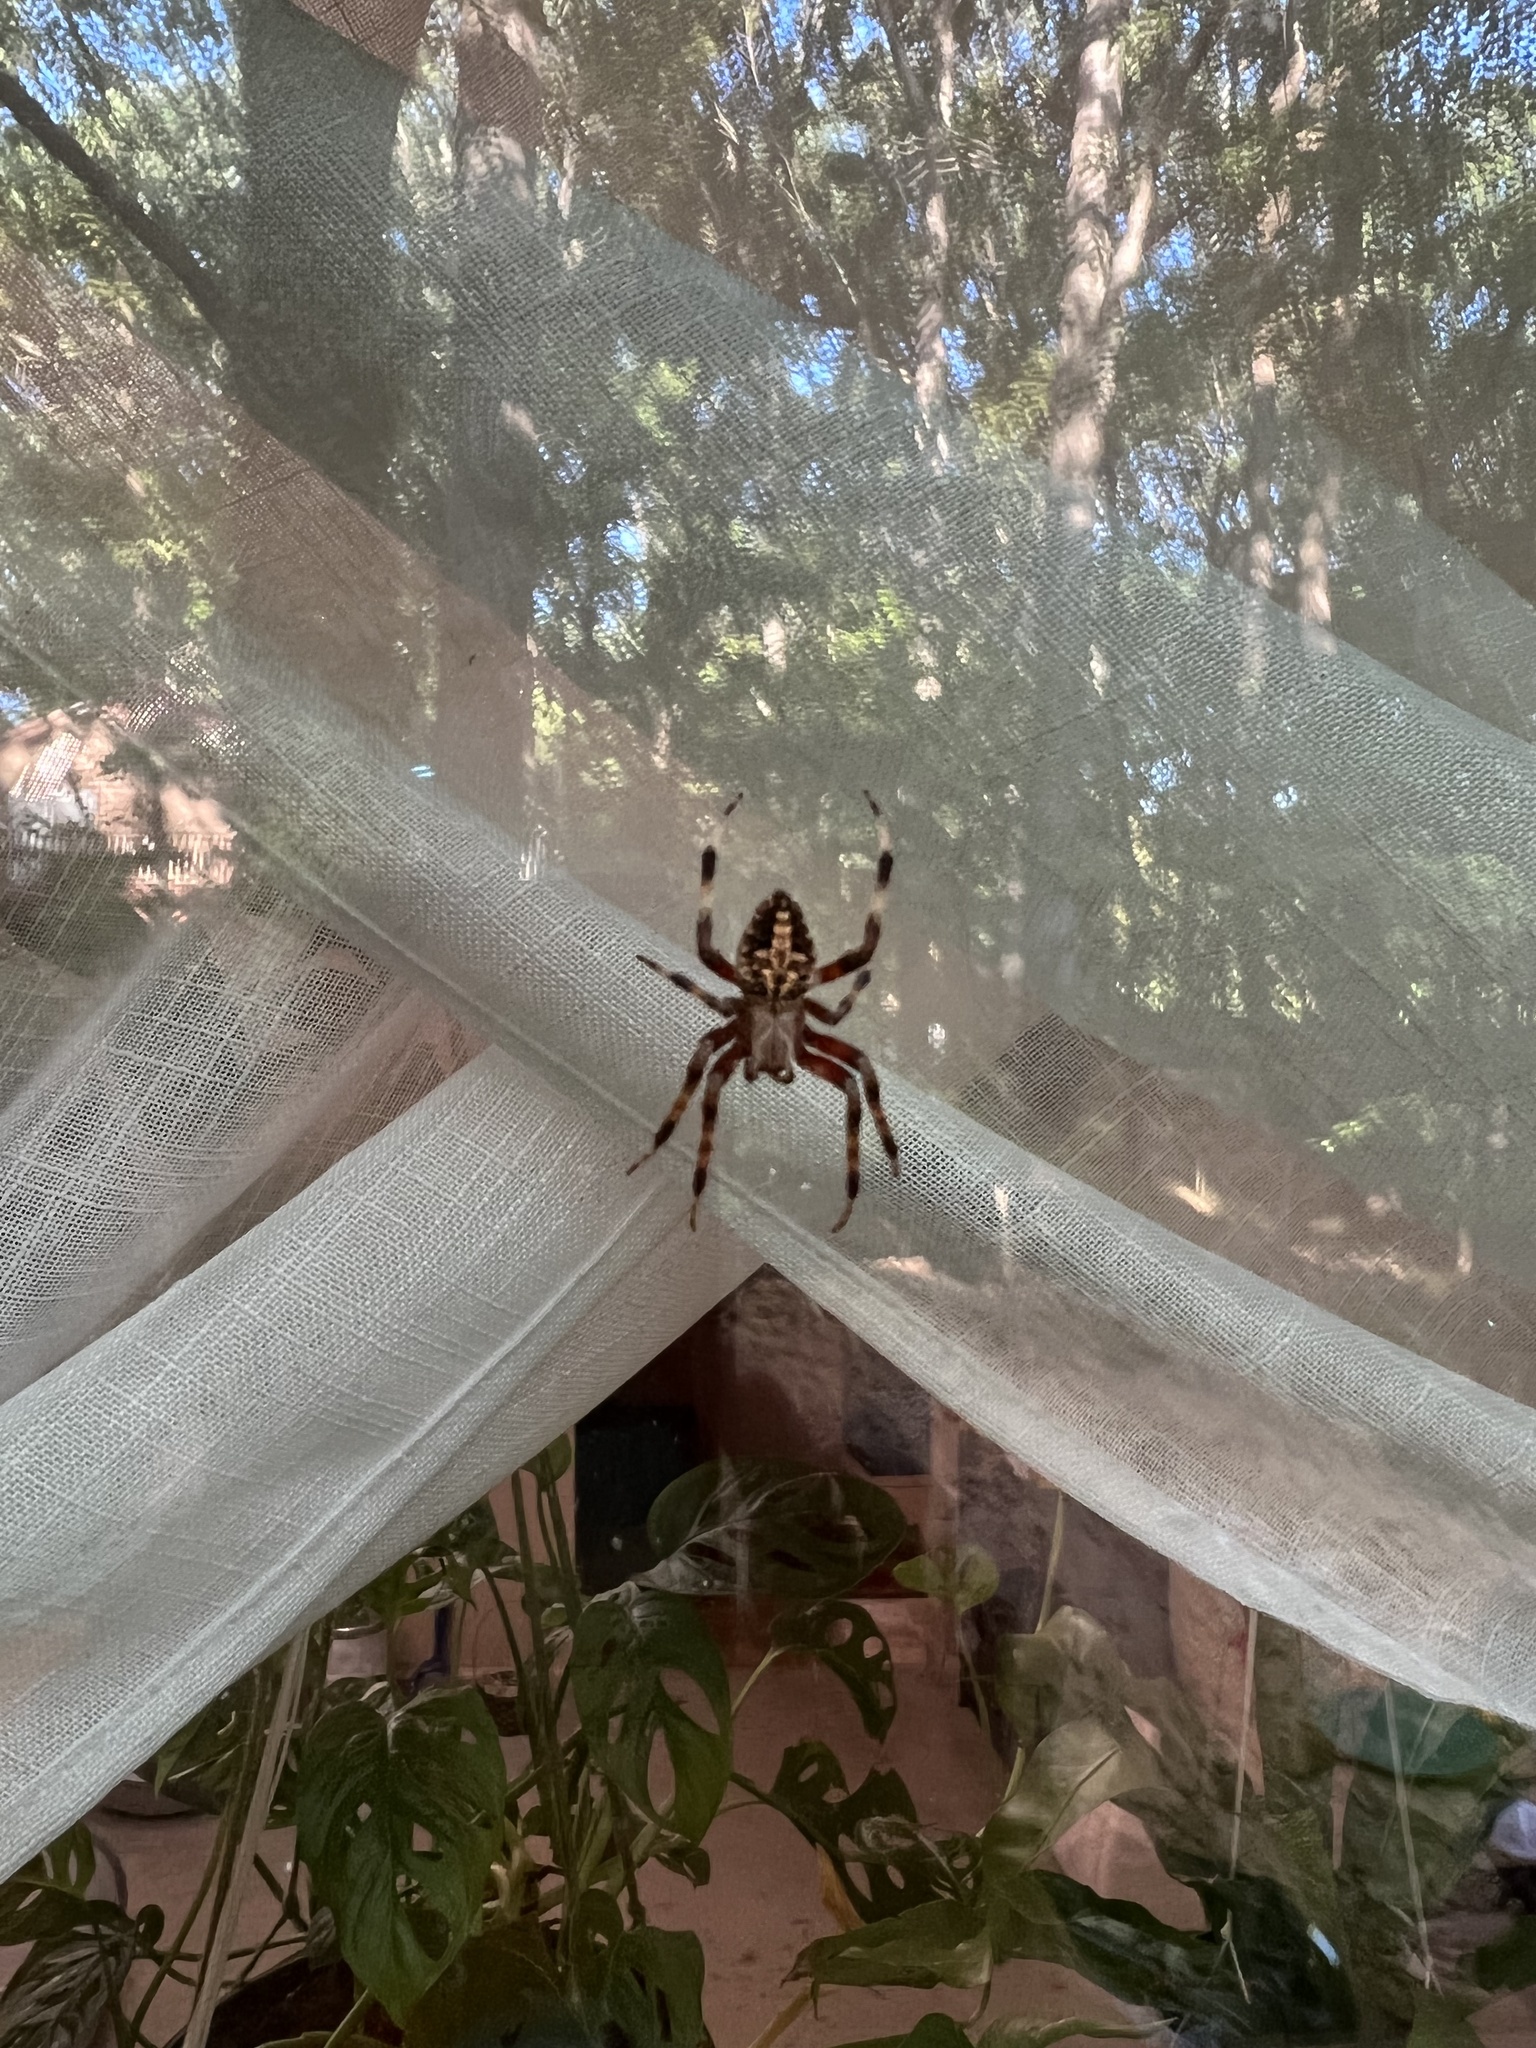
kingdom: Animalia
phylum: Arthropoda
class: Arachnida
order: Araneae
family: Araneidae
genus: Neoscona
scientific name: Neoscona domiciliorum
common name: Red-femured spotted orbweaver
